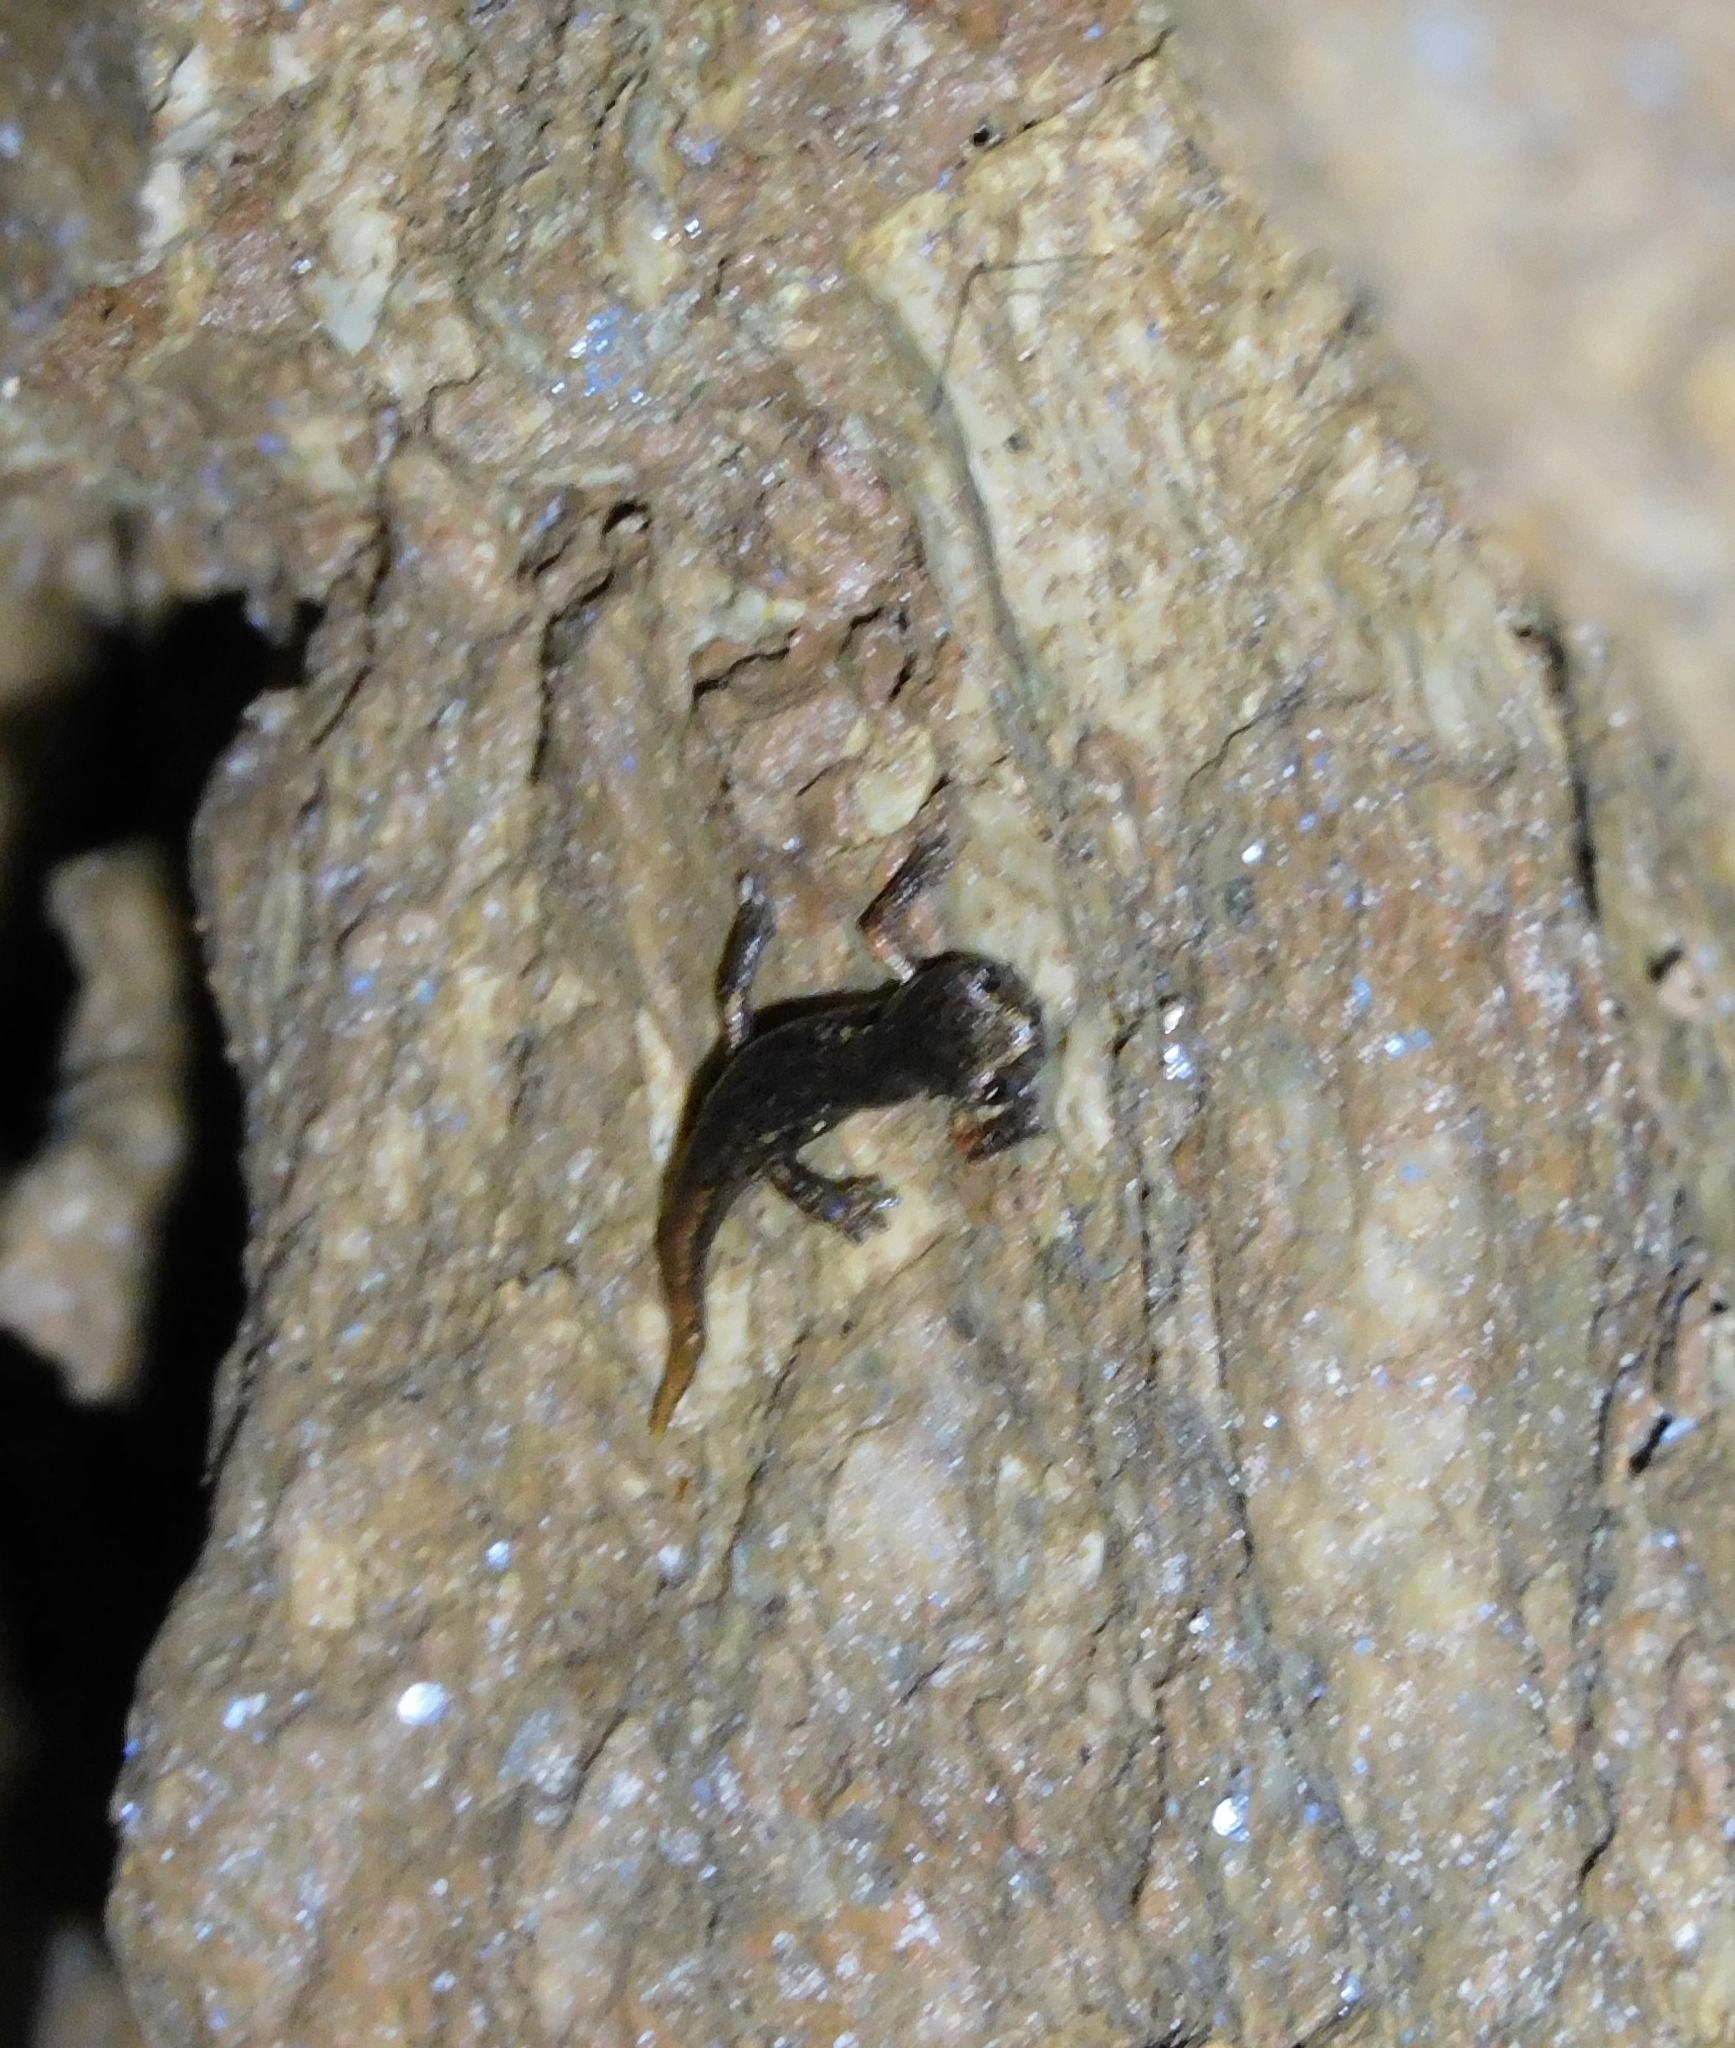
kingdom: Animalia
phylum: Chordata
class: Amphibia
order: Caudata
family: Plethodontidae
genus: Speleomantes
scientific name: Speleomantes italicus
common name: Italian cave salamander
